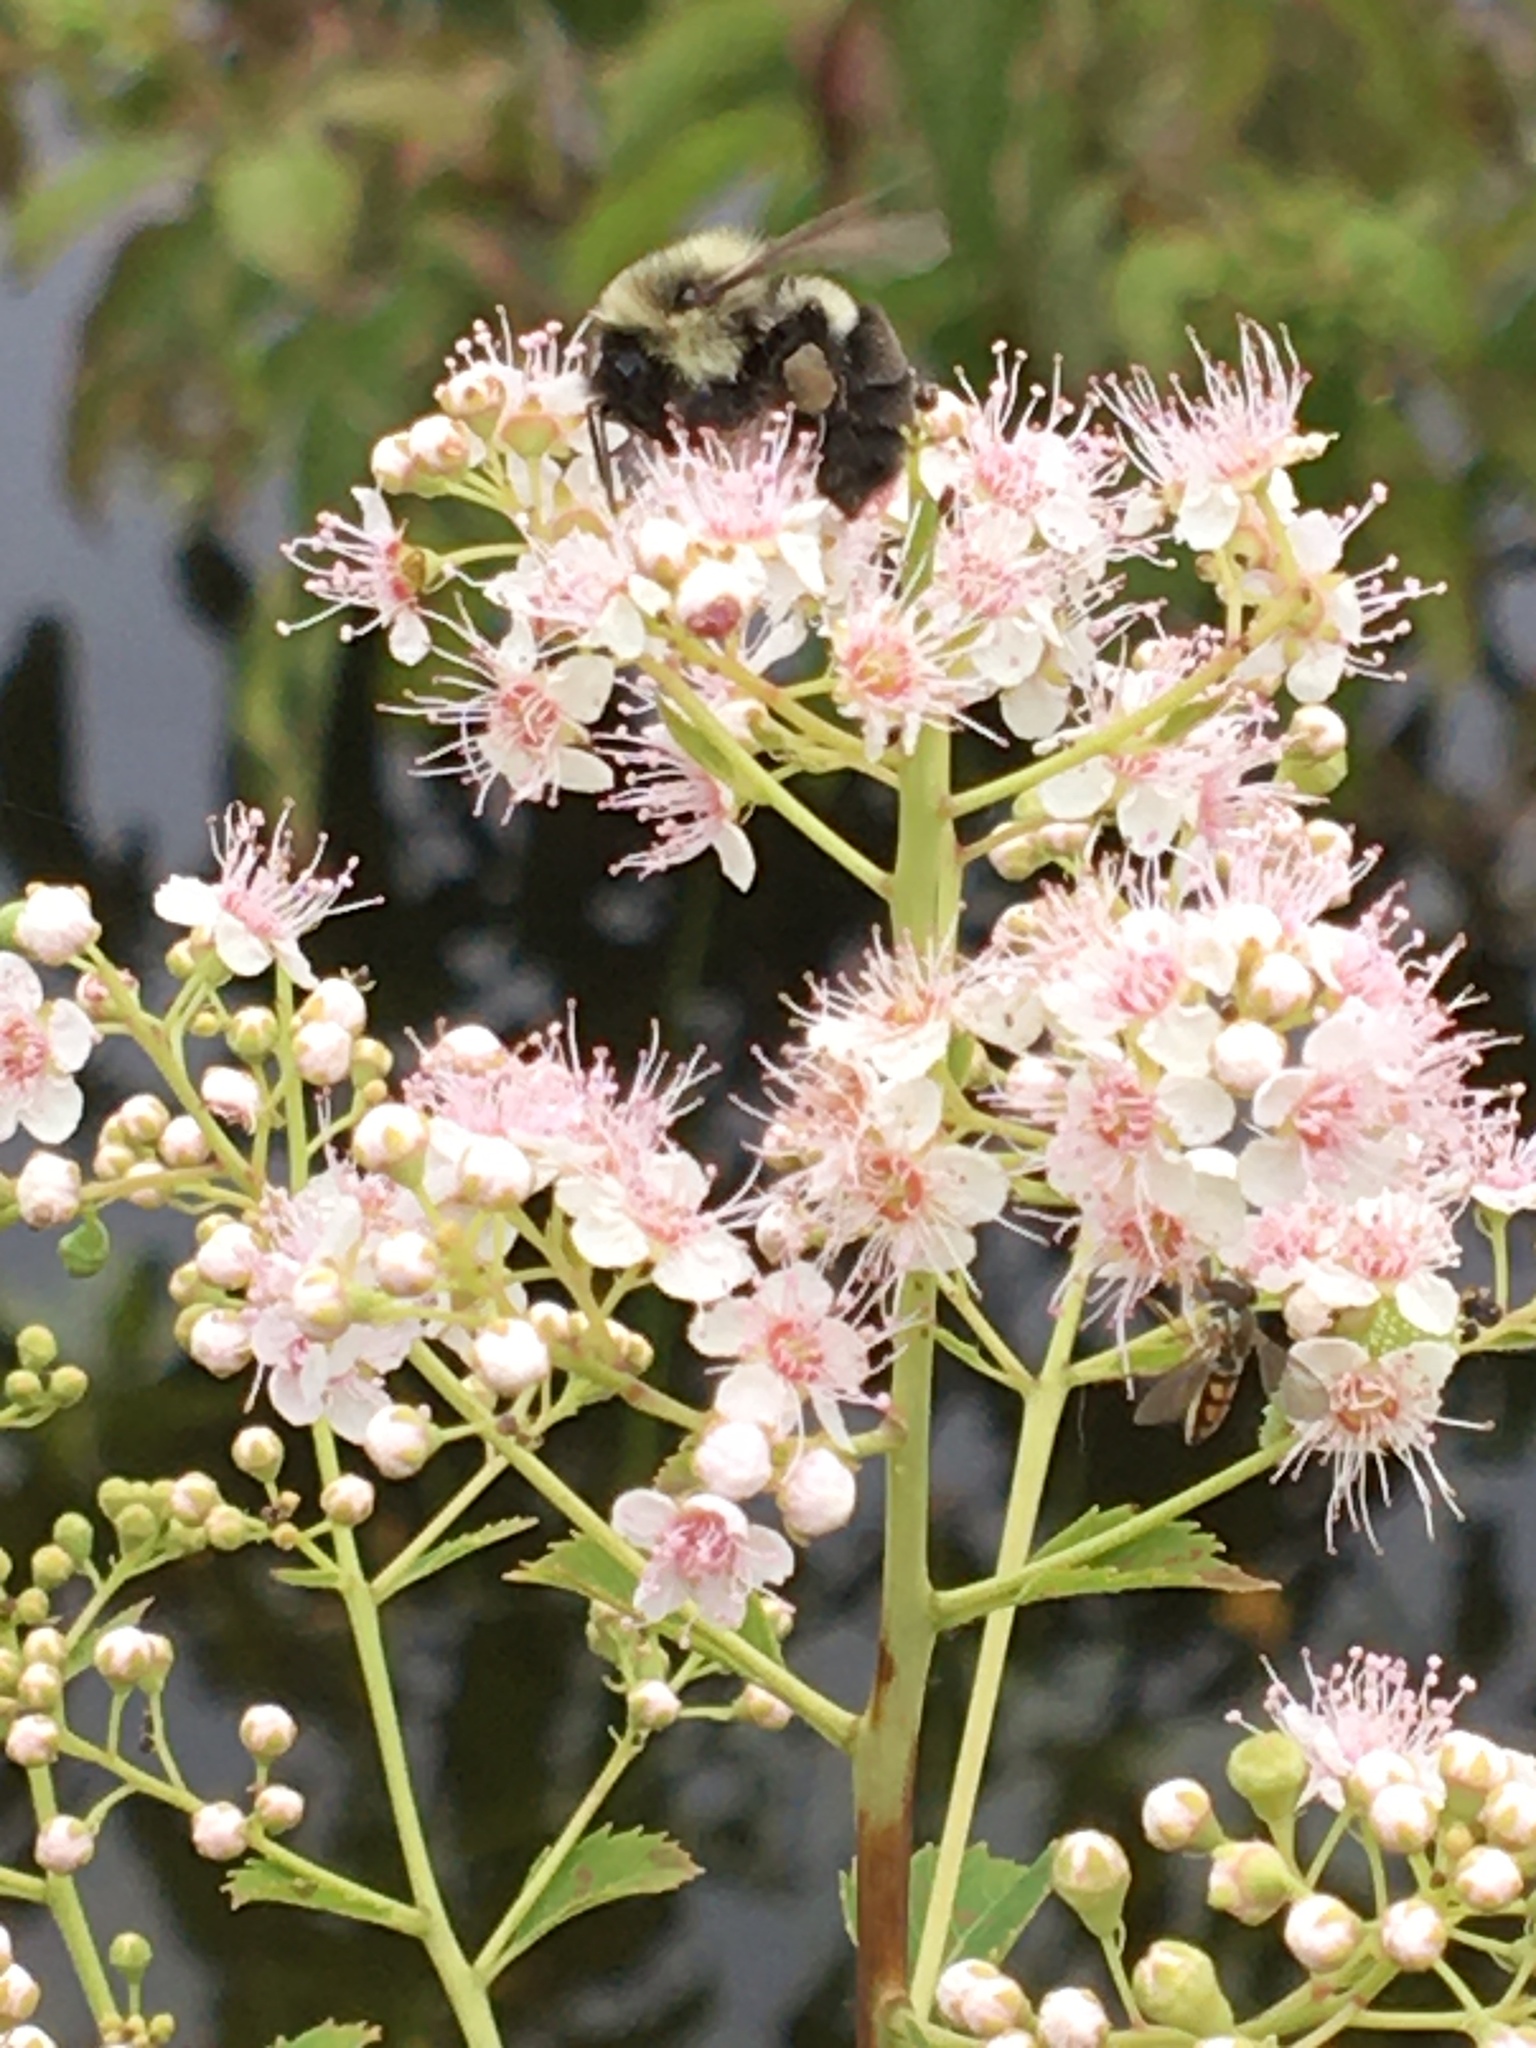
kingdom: Animalia
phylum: Arthropoda
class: Insecta
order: Hymenoptera
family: Apidae
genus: Bombus
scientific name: Bombus impatiens
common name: Common eastern bumble bee
